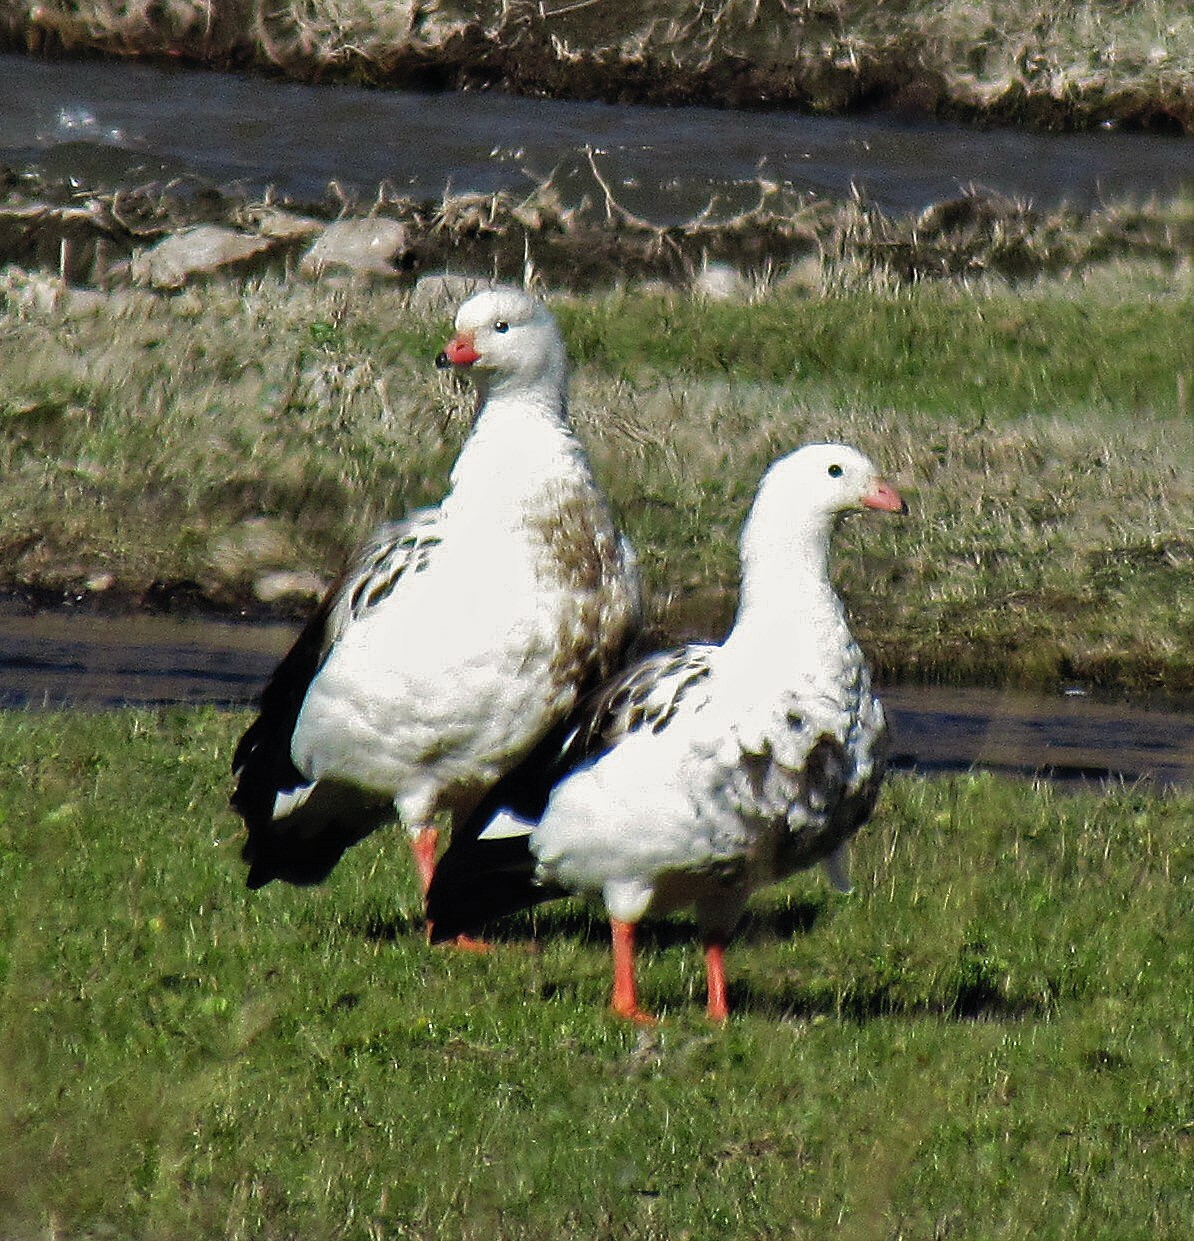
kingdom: Animalia
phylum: Chordata
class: Aves
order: Anseriformes
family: Anatidae
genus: Chloephaga
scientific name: Chloephaga melanoptera
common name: Andean goose
